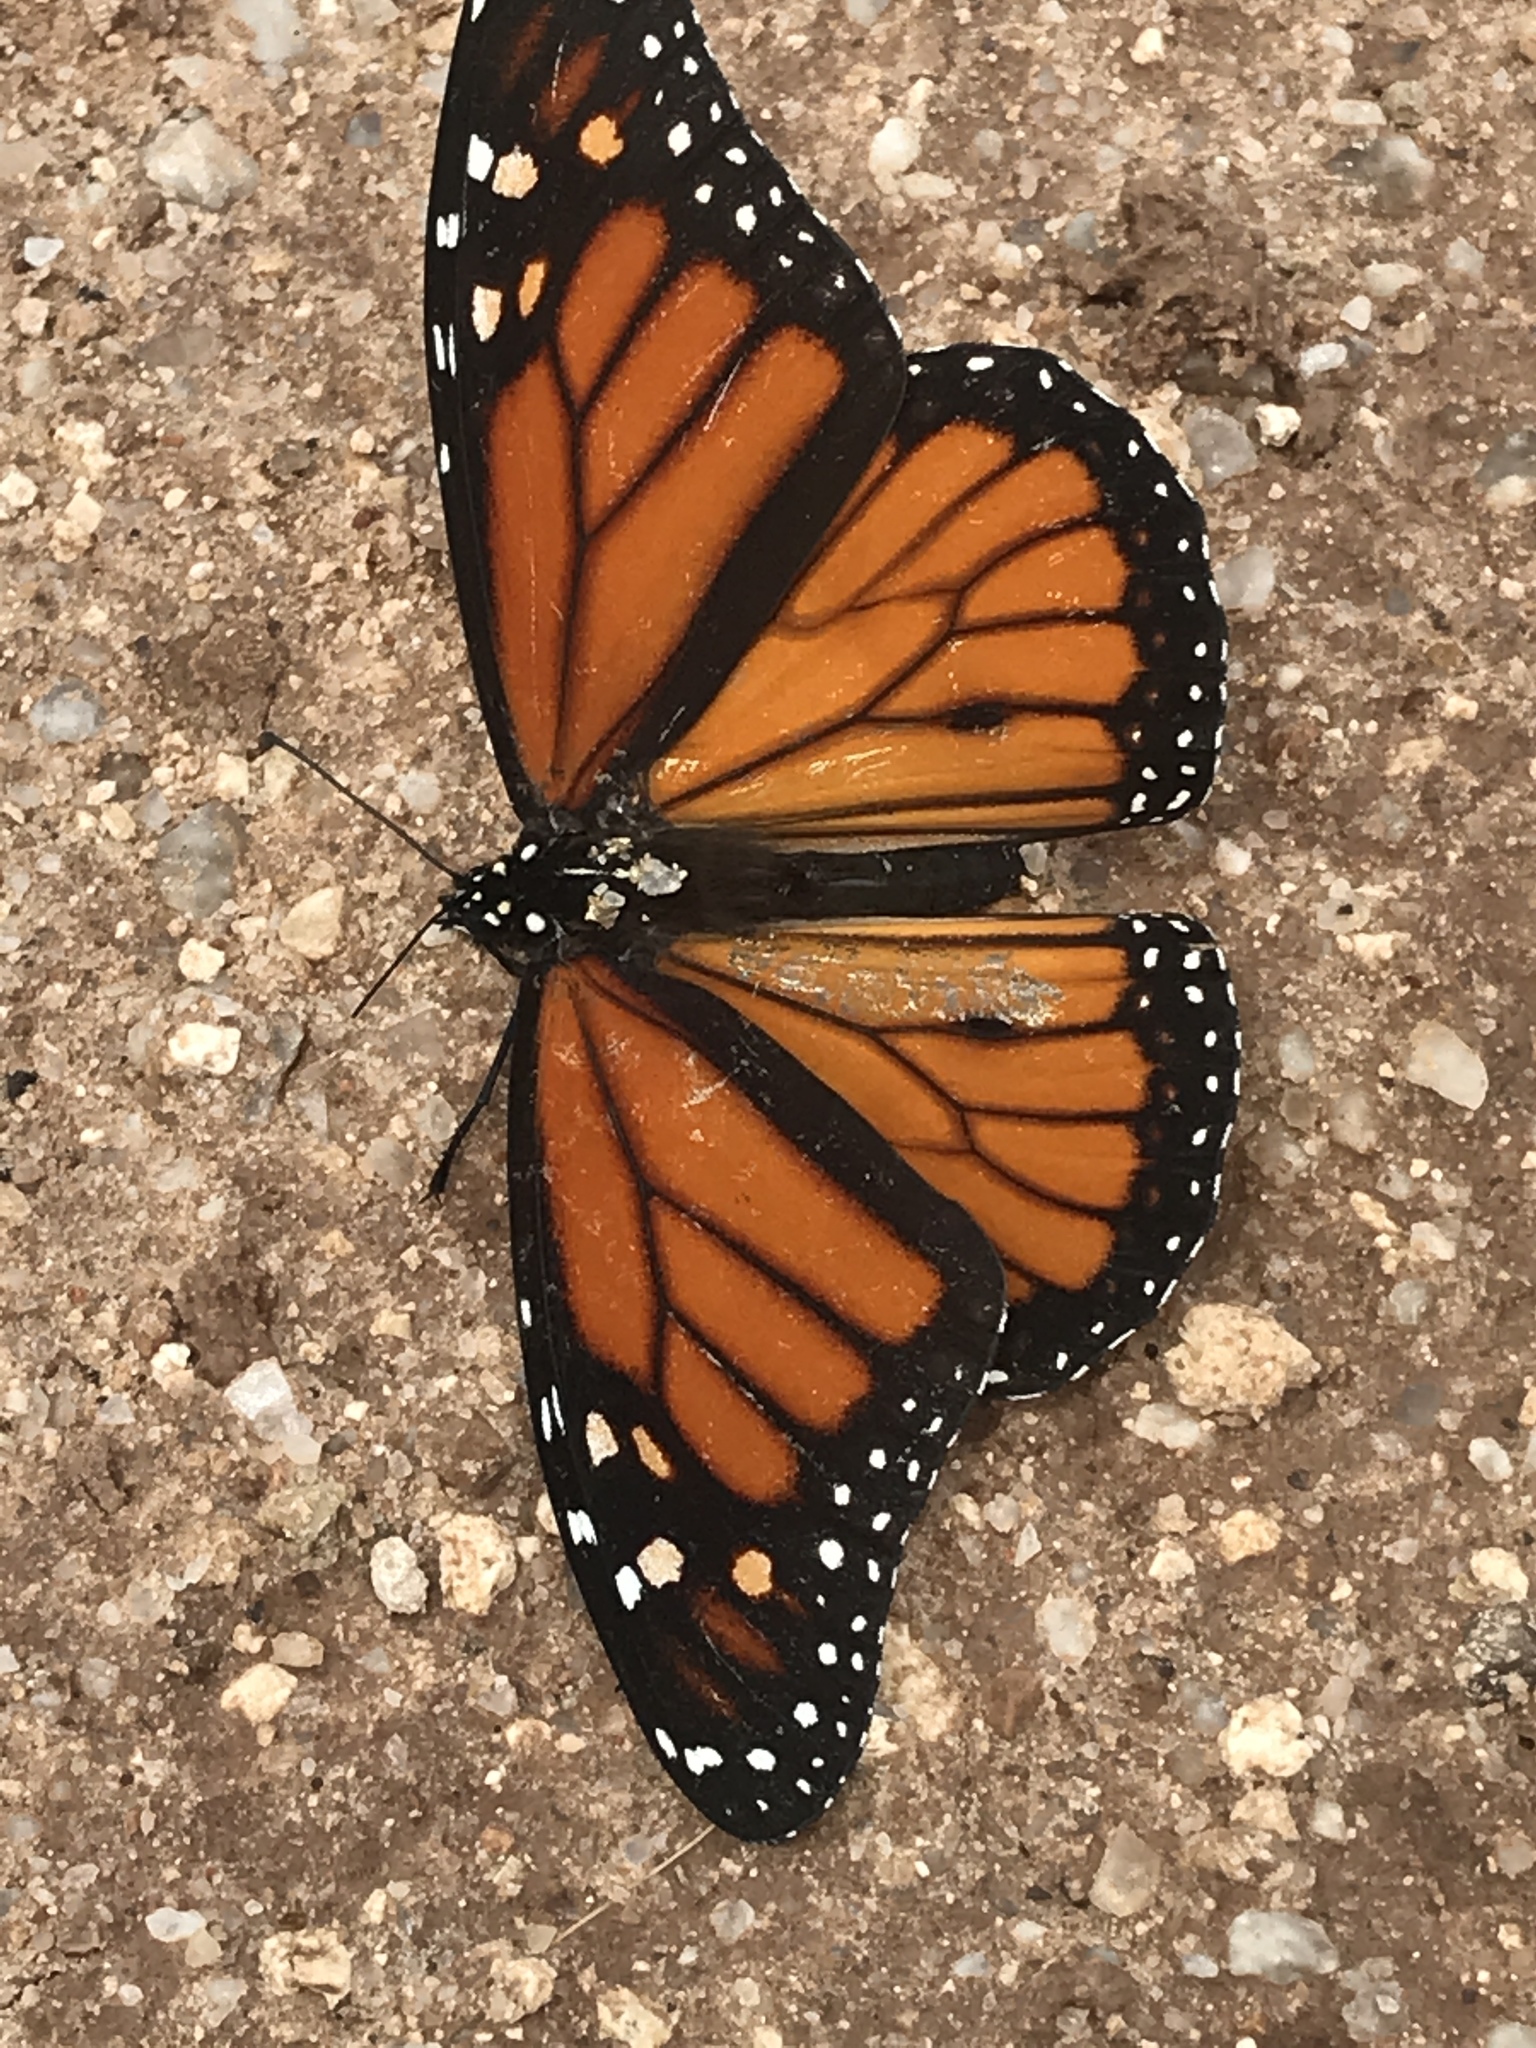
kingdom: Animalia
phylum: Arthropoda
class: Insecta
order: Lepidoptera
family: Nymphalidae
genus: Danaus
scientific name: Danaus plexippus
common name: Monarch
